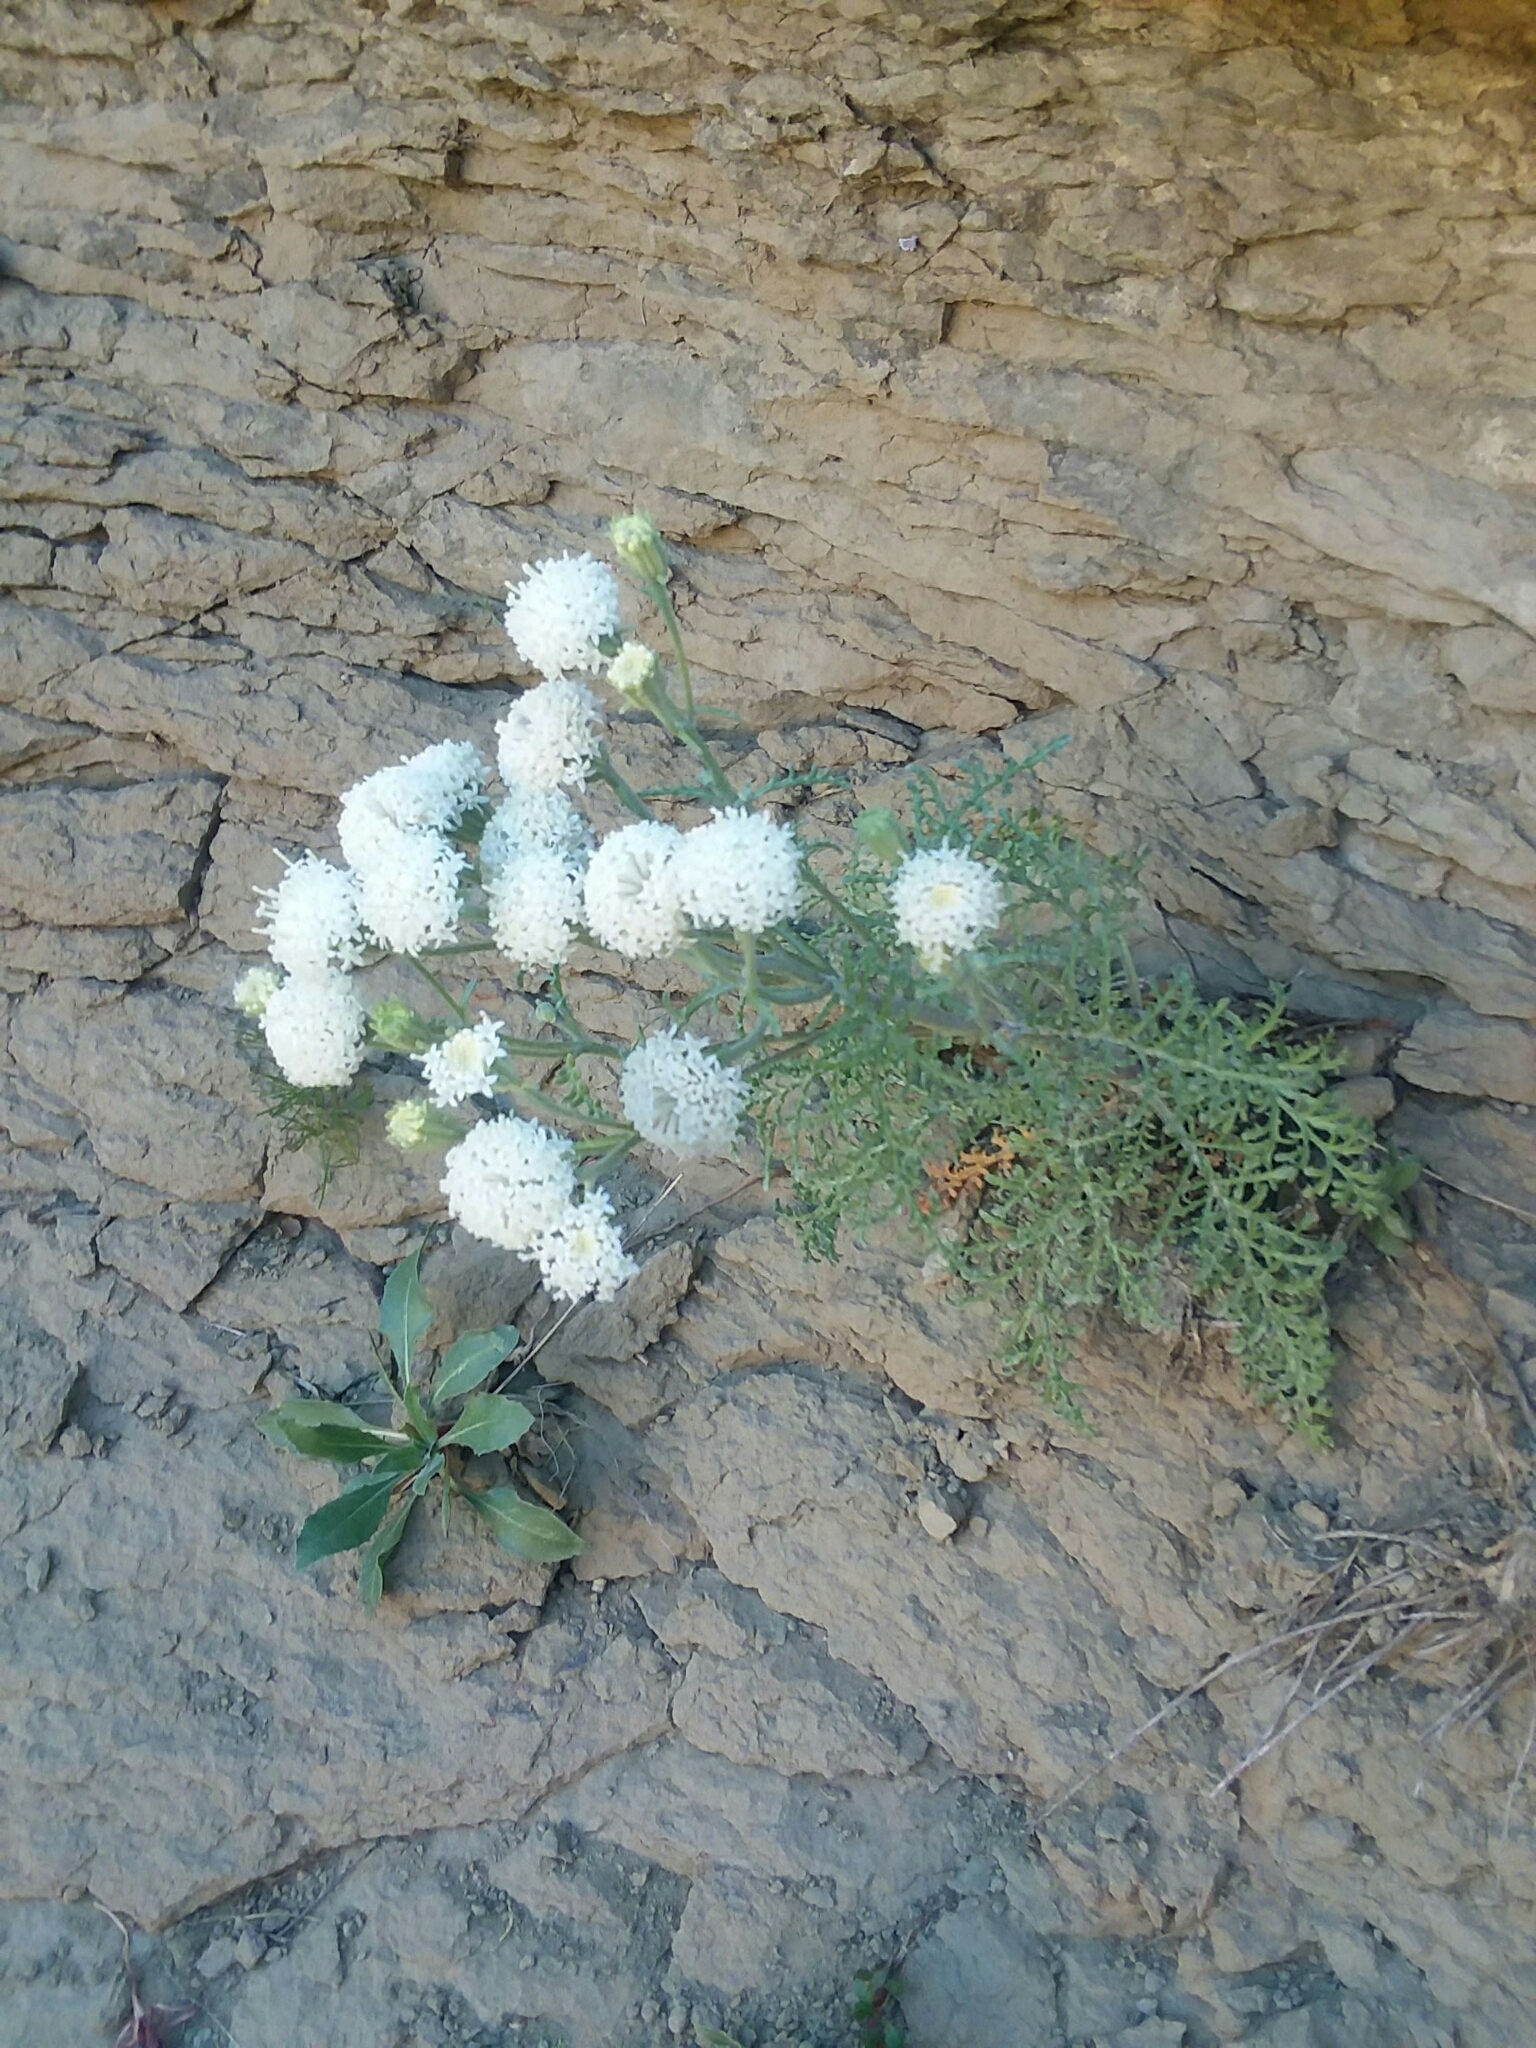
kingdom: Plantae
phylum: Tracheophyta
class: Magnoliopsida
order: Asterales
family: Asteraceae
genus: Chaenactis
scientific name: Chaenactis douglasii
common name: Hoary pincushion
